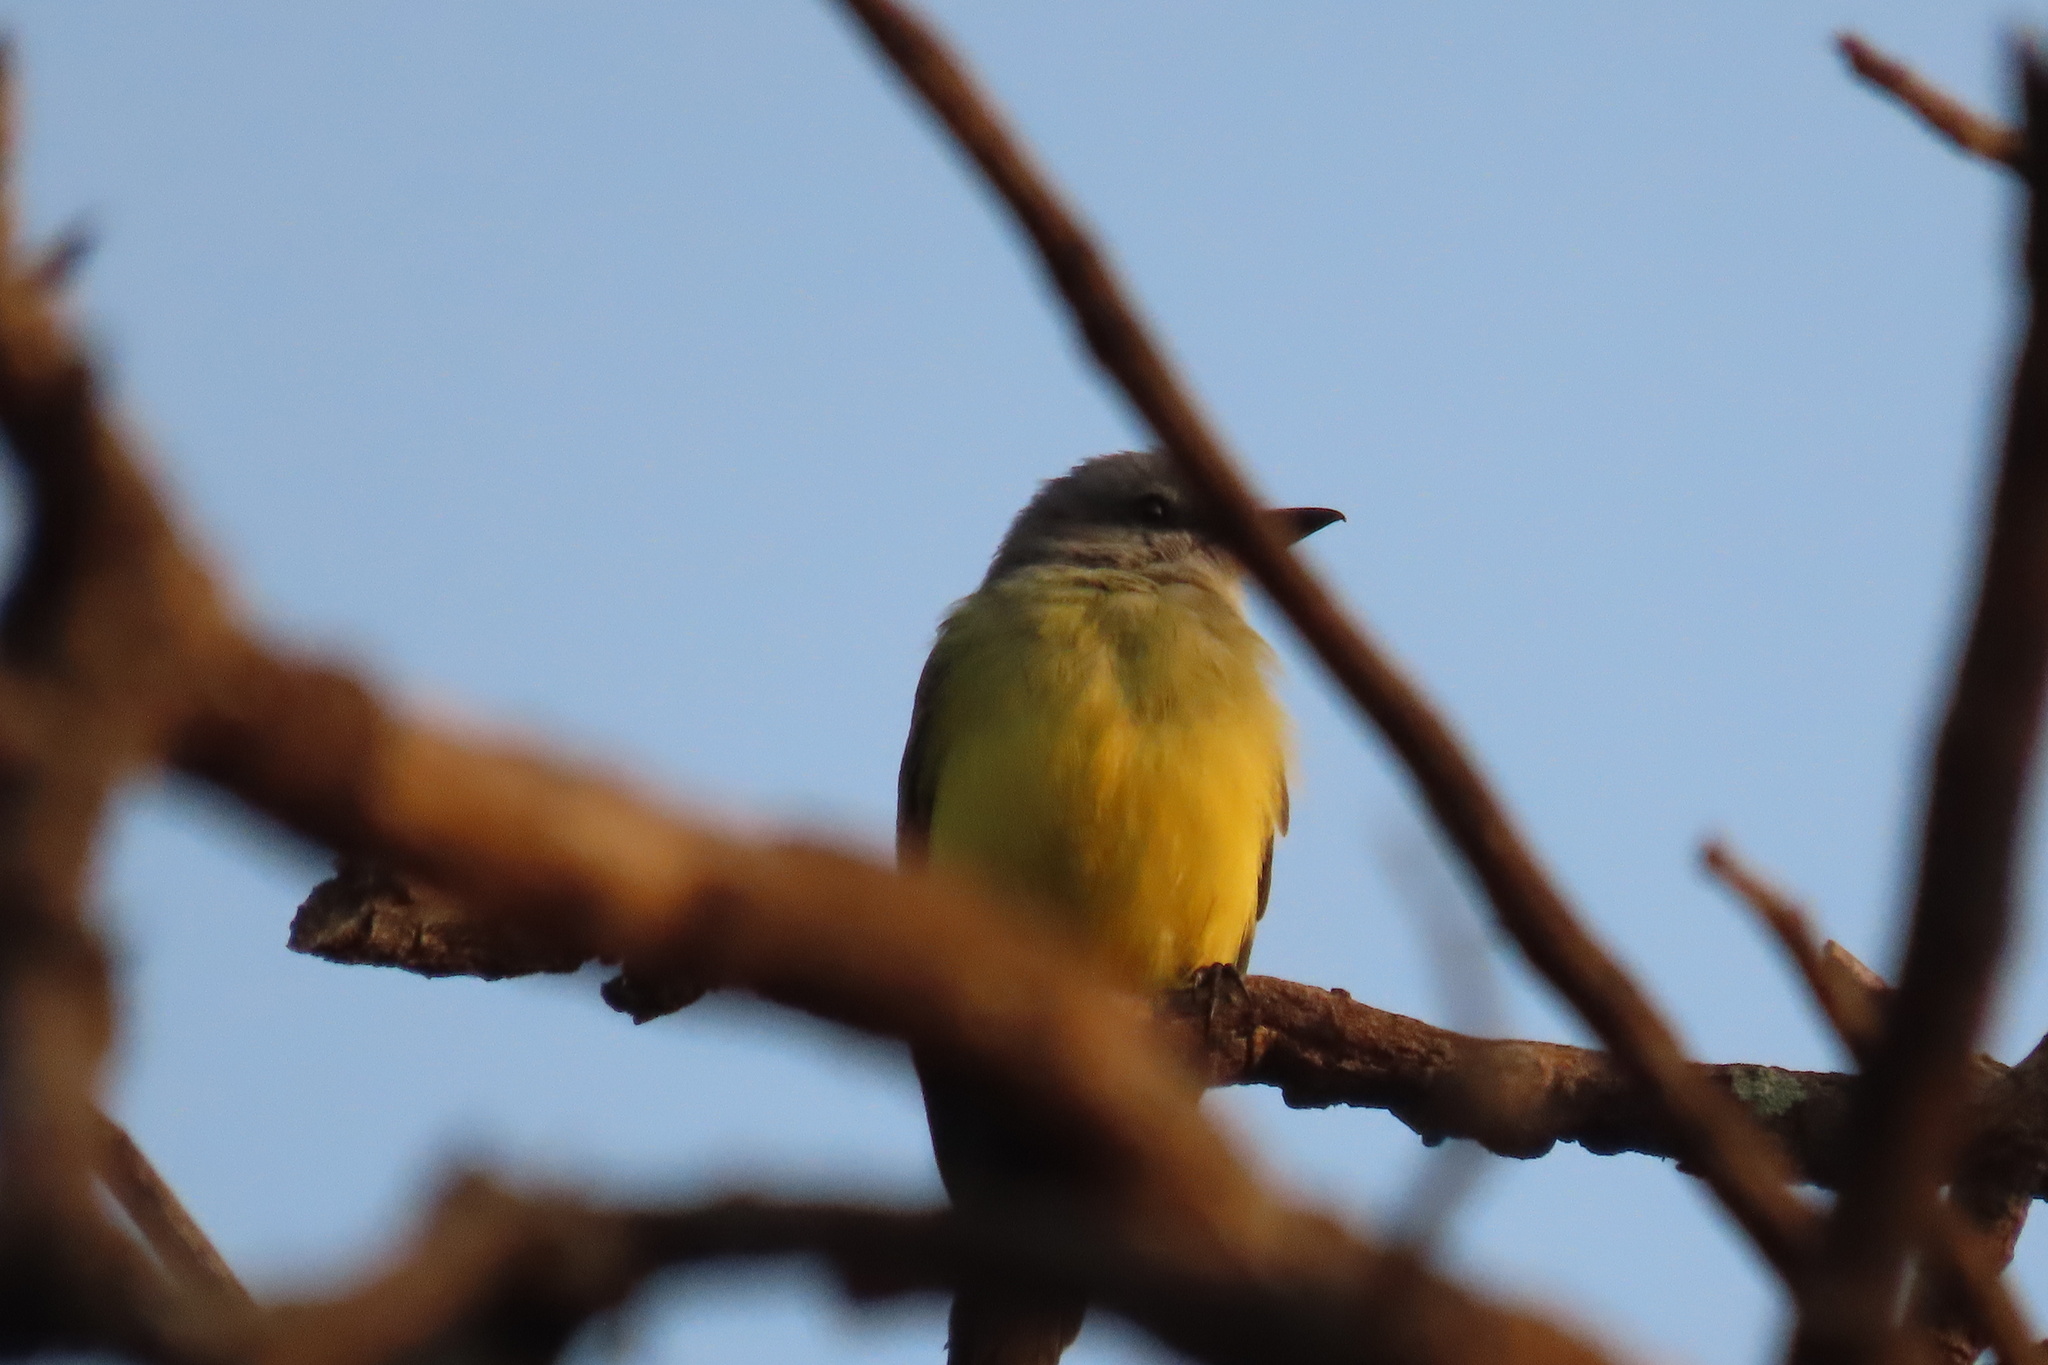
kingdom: Animalia
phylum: Chordata
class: Aves
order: Passeriformes
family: Tyrannidae
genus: Tyrannus
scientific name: Tyrannus melancholicus
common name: Tropical kingbird
